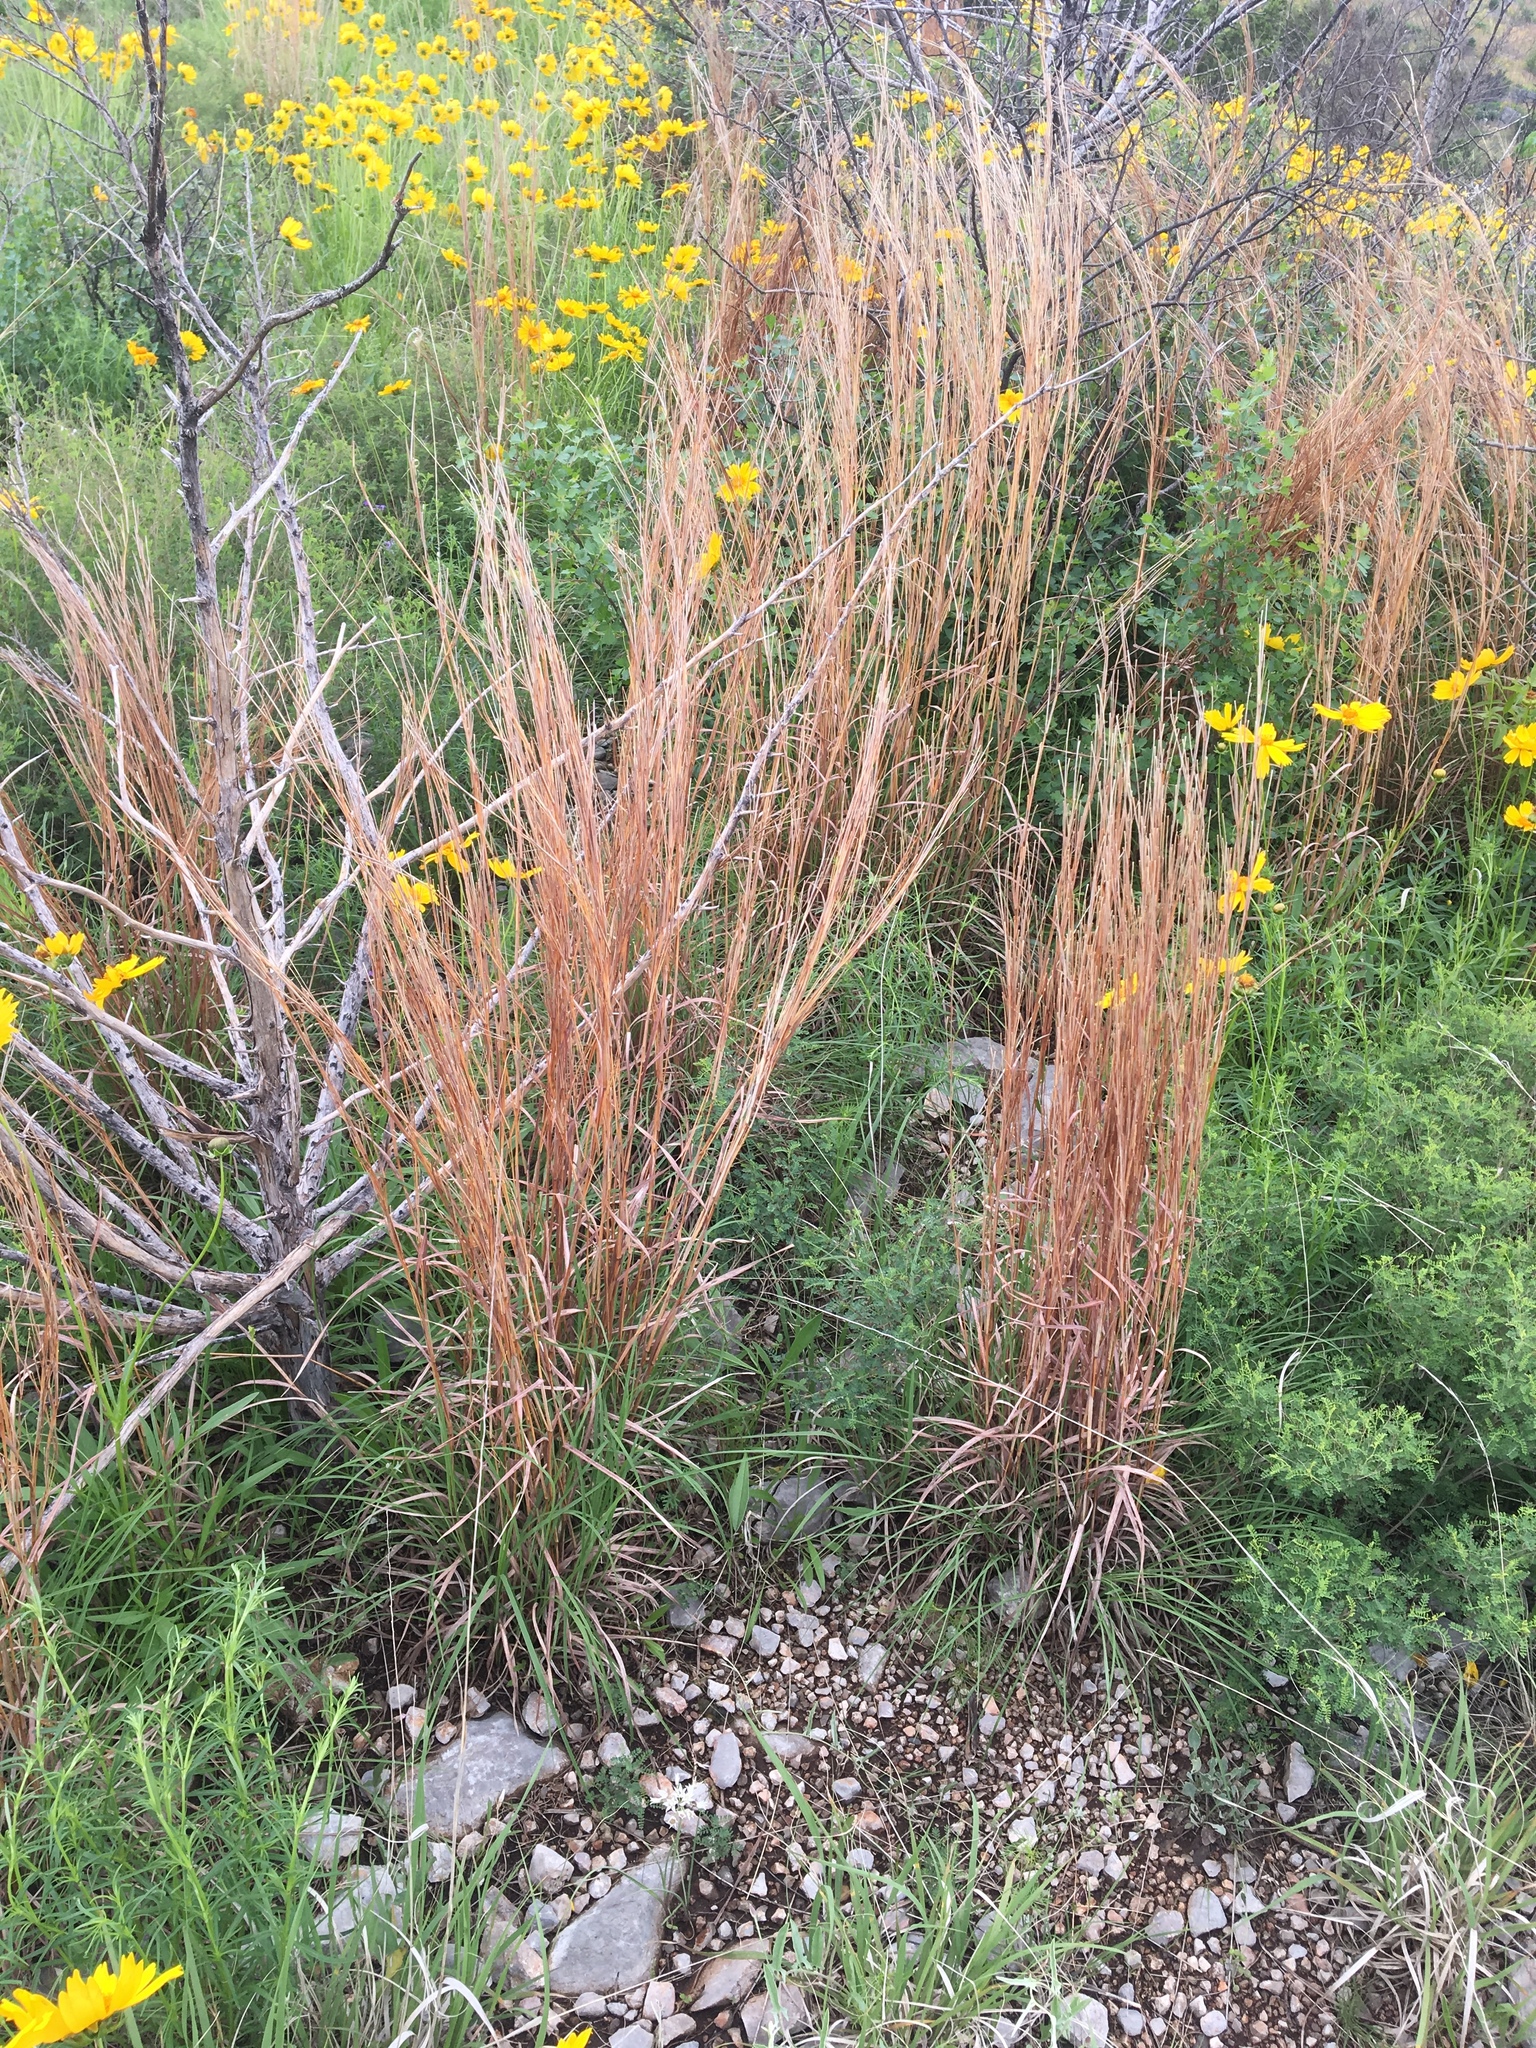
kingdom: Plantae
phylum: Tracheophyta
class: Liliopsida
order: Poales
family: Poaceae
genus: Schizachyrium
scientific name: Schizachyrium scoparium
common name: Little bluestem
